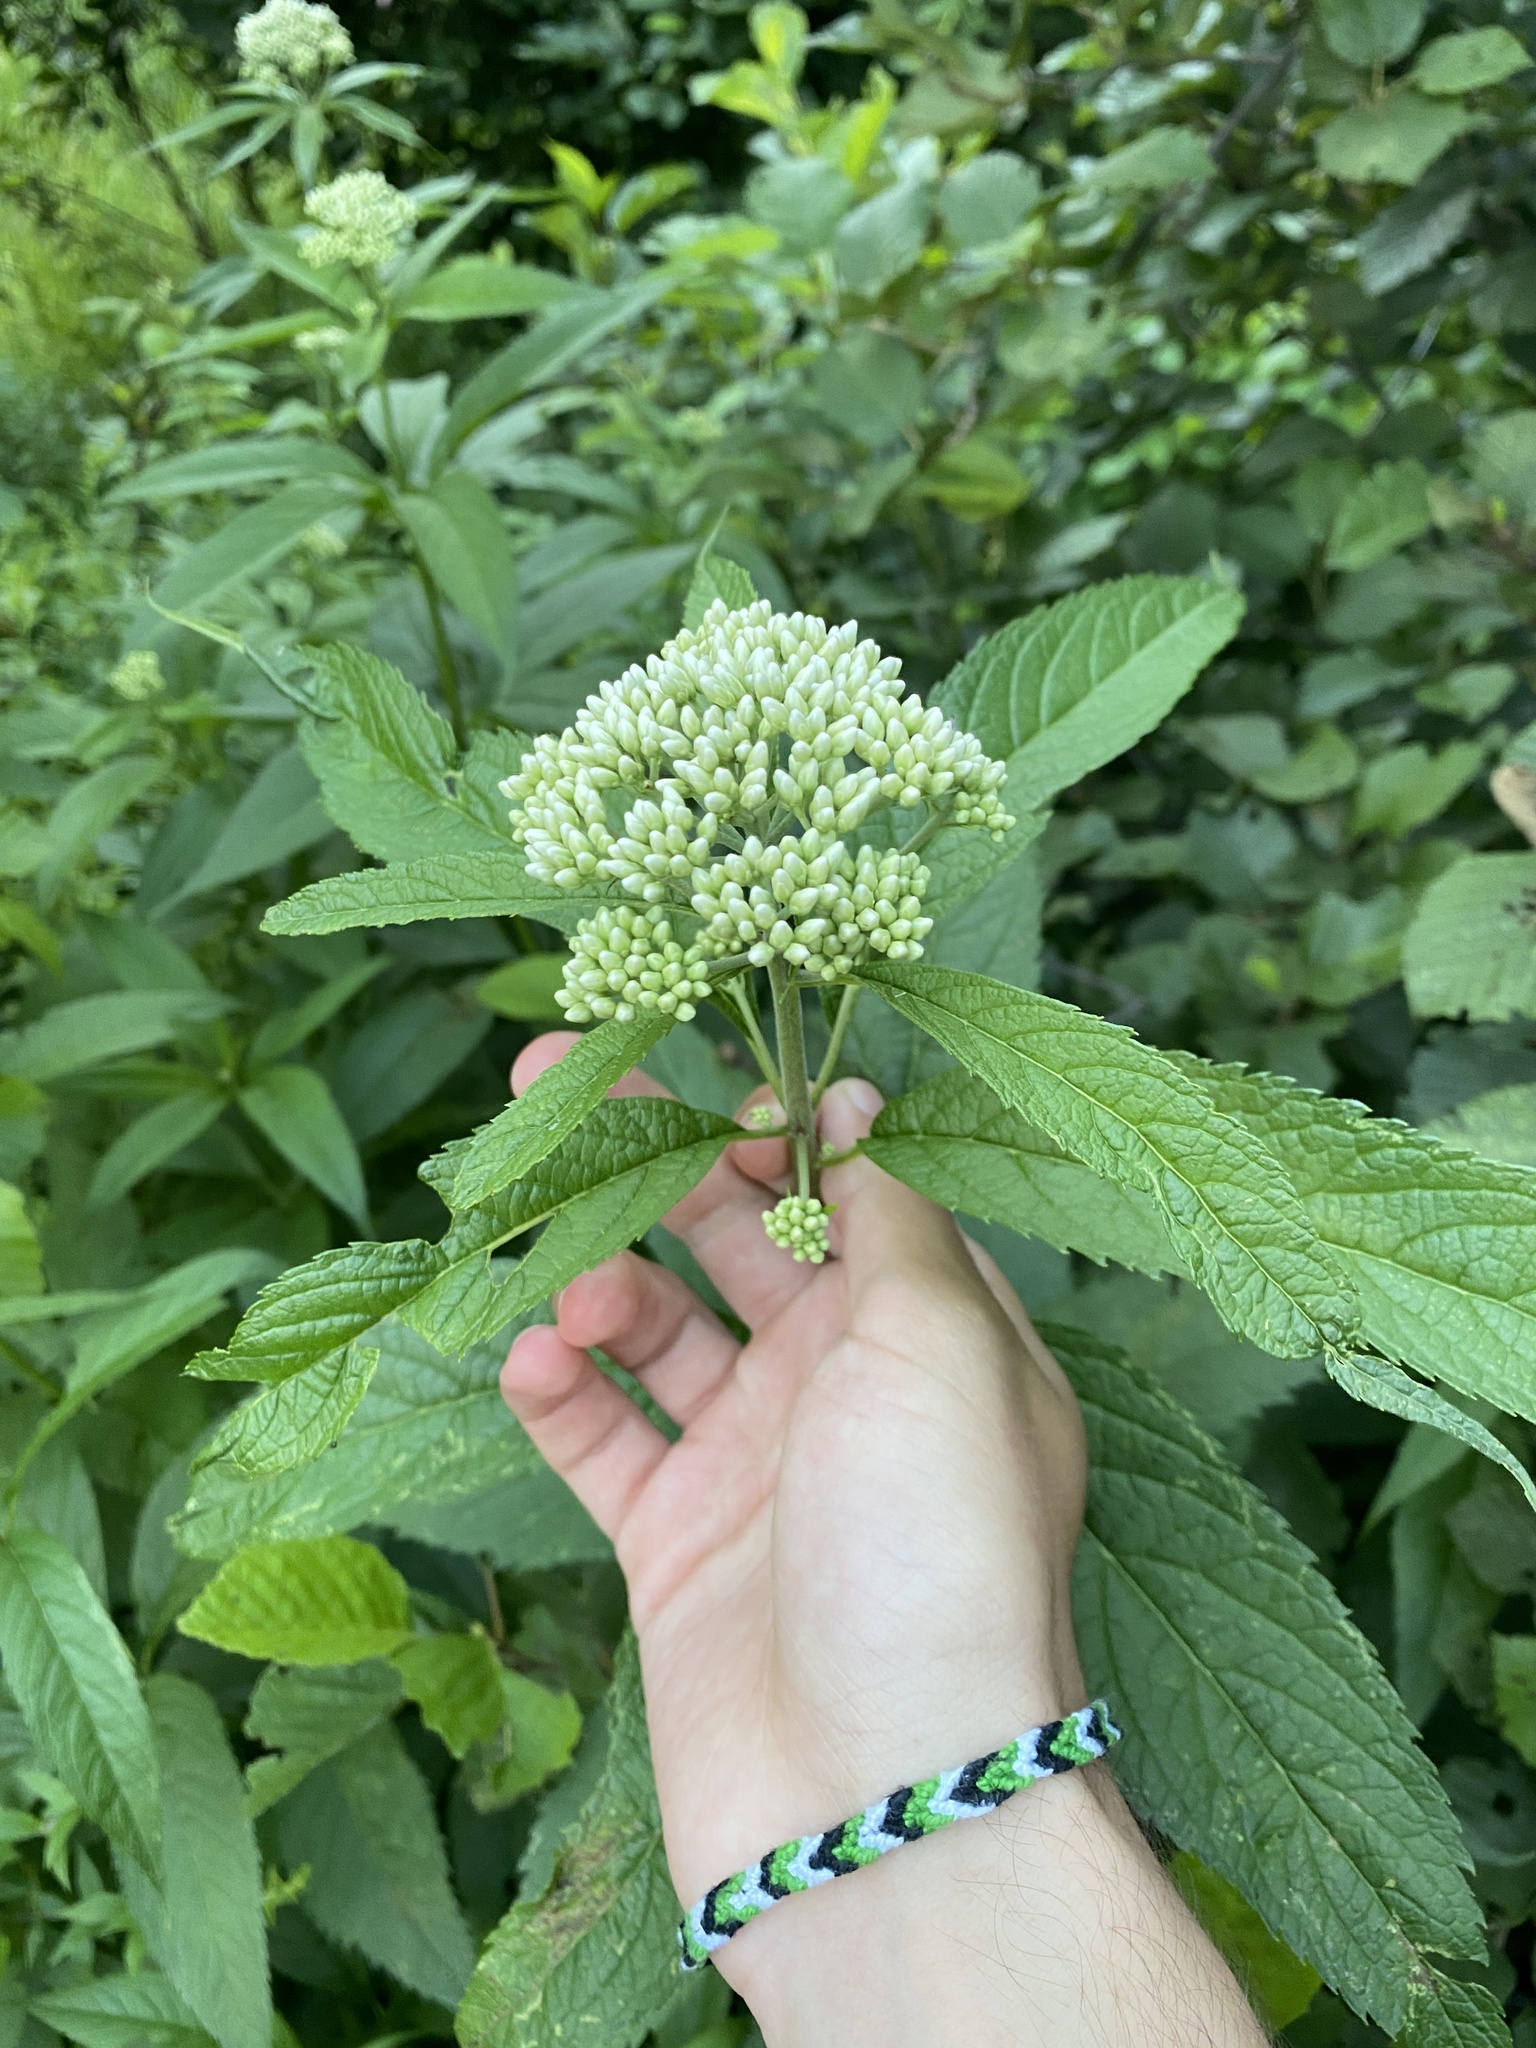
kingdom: Plantae
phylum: Tracheophyta
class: Magnoliopsida
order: Asterales
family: Asteraceae
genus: Eutrochium
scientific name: Eutrochium maculatum
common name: Spotted joe pye weed
